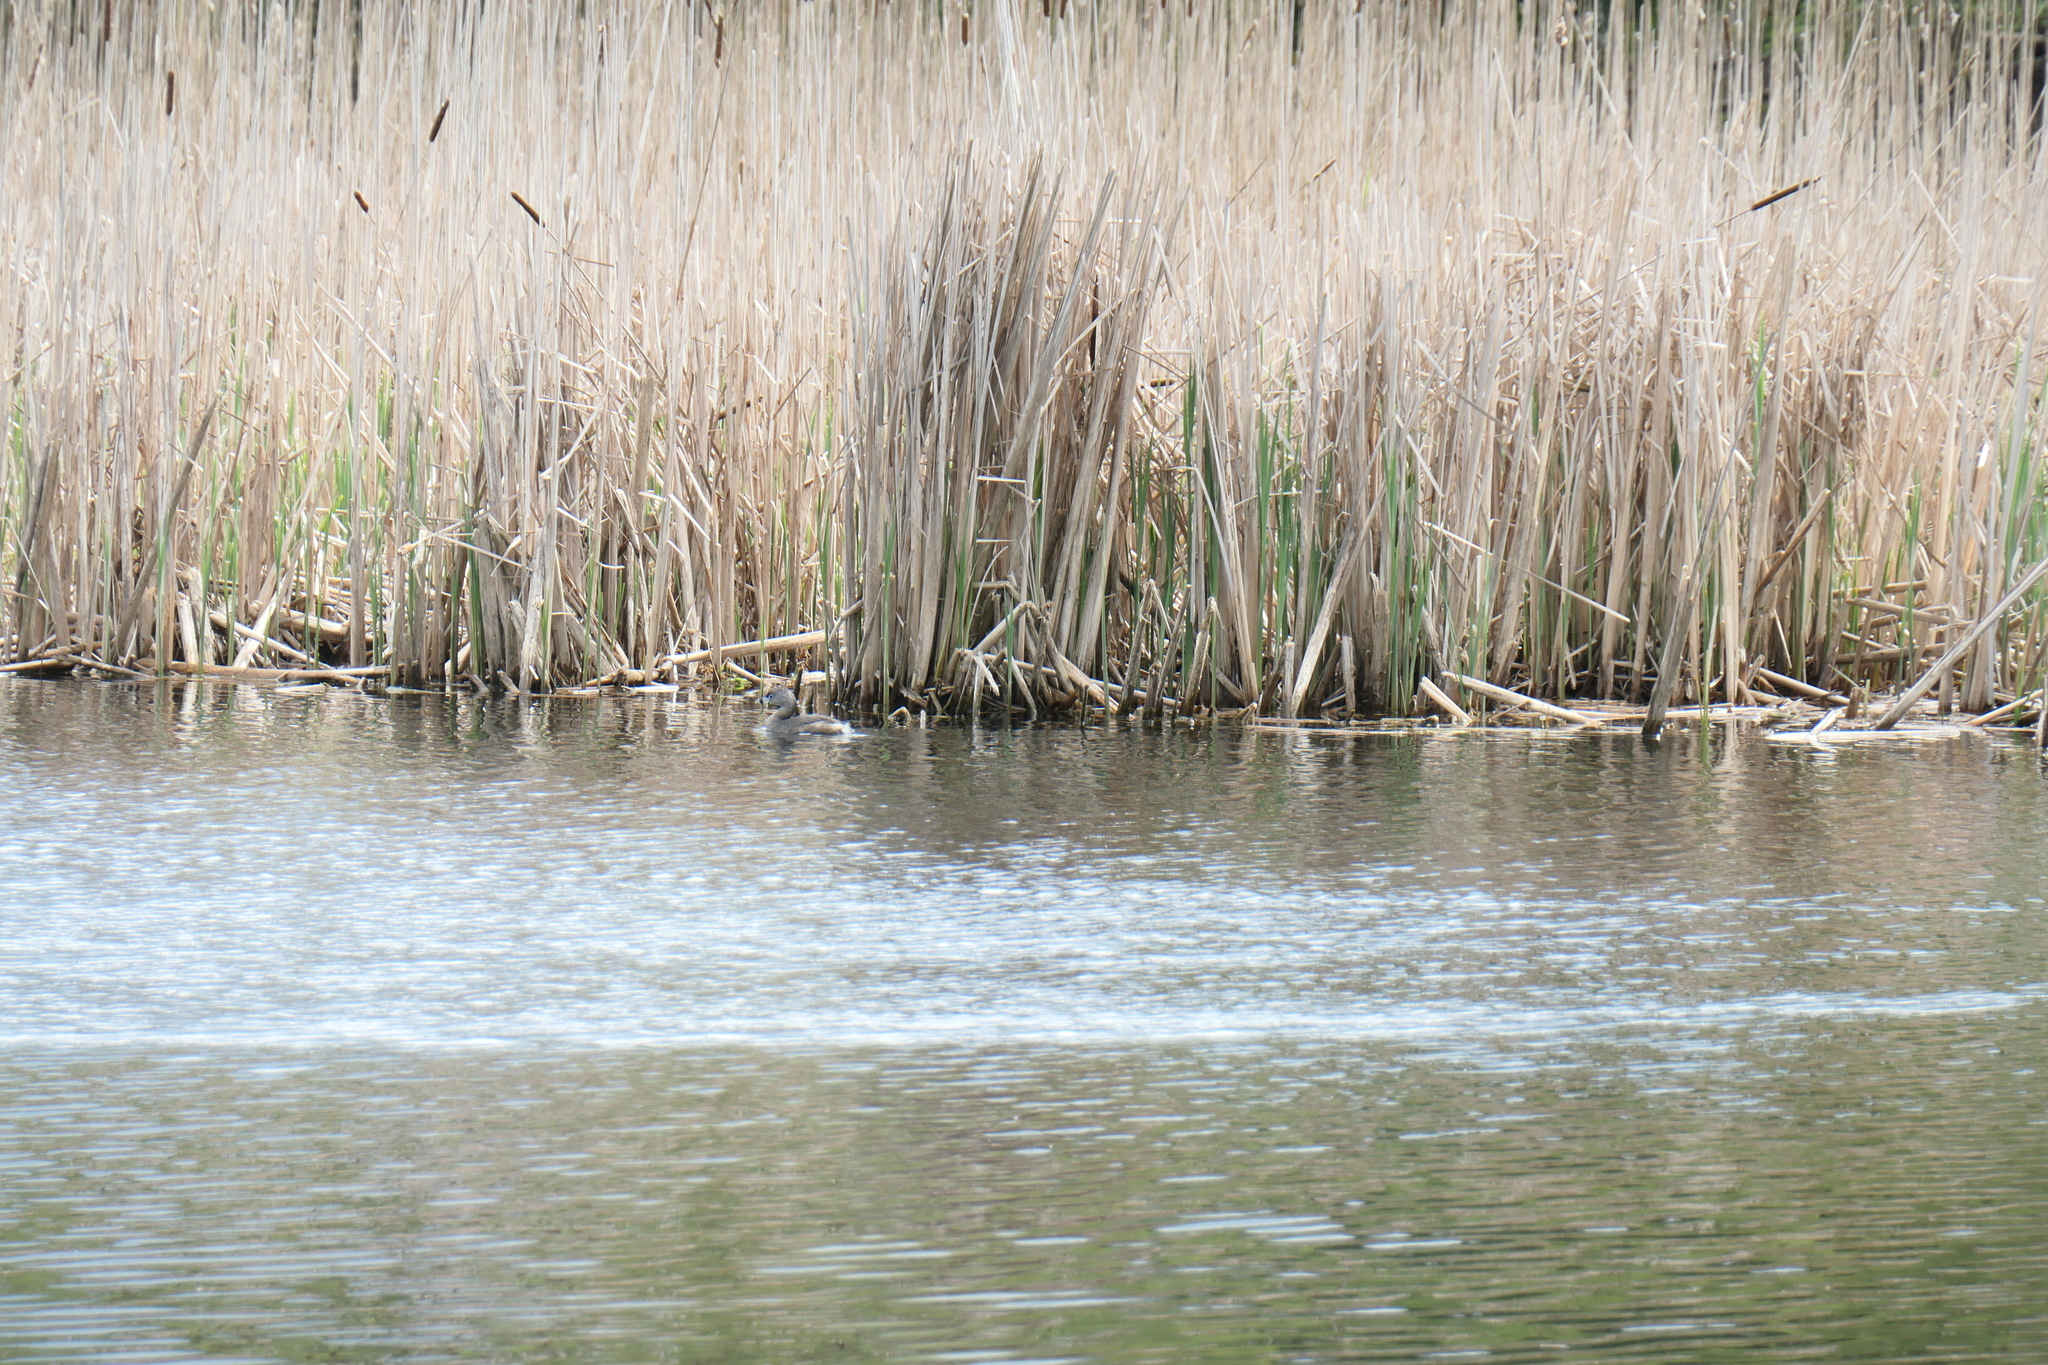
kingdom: Animalia
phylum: Chordata
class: Aves
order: Podicipediformes
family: Podicipedidae
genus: Podilymbus
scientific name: Podilymbus podiceps
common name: Pied-billed grebe
